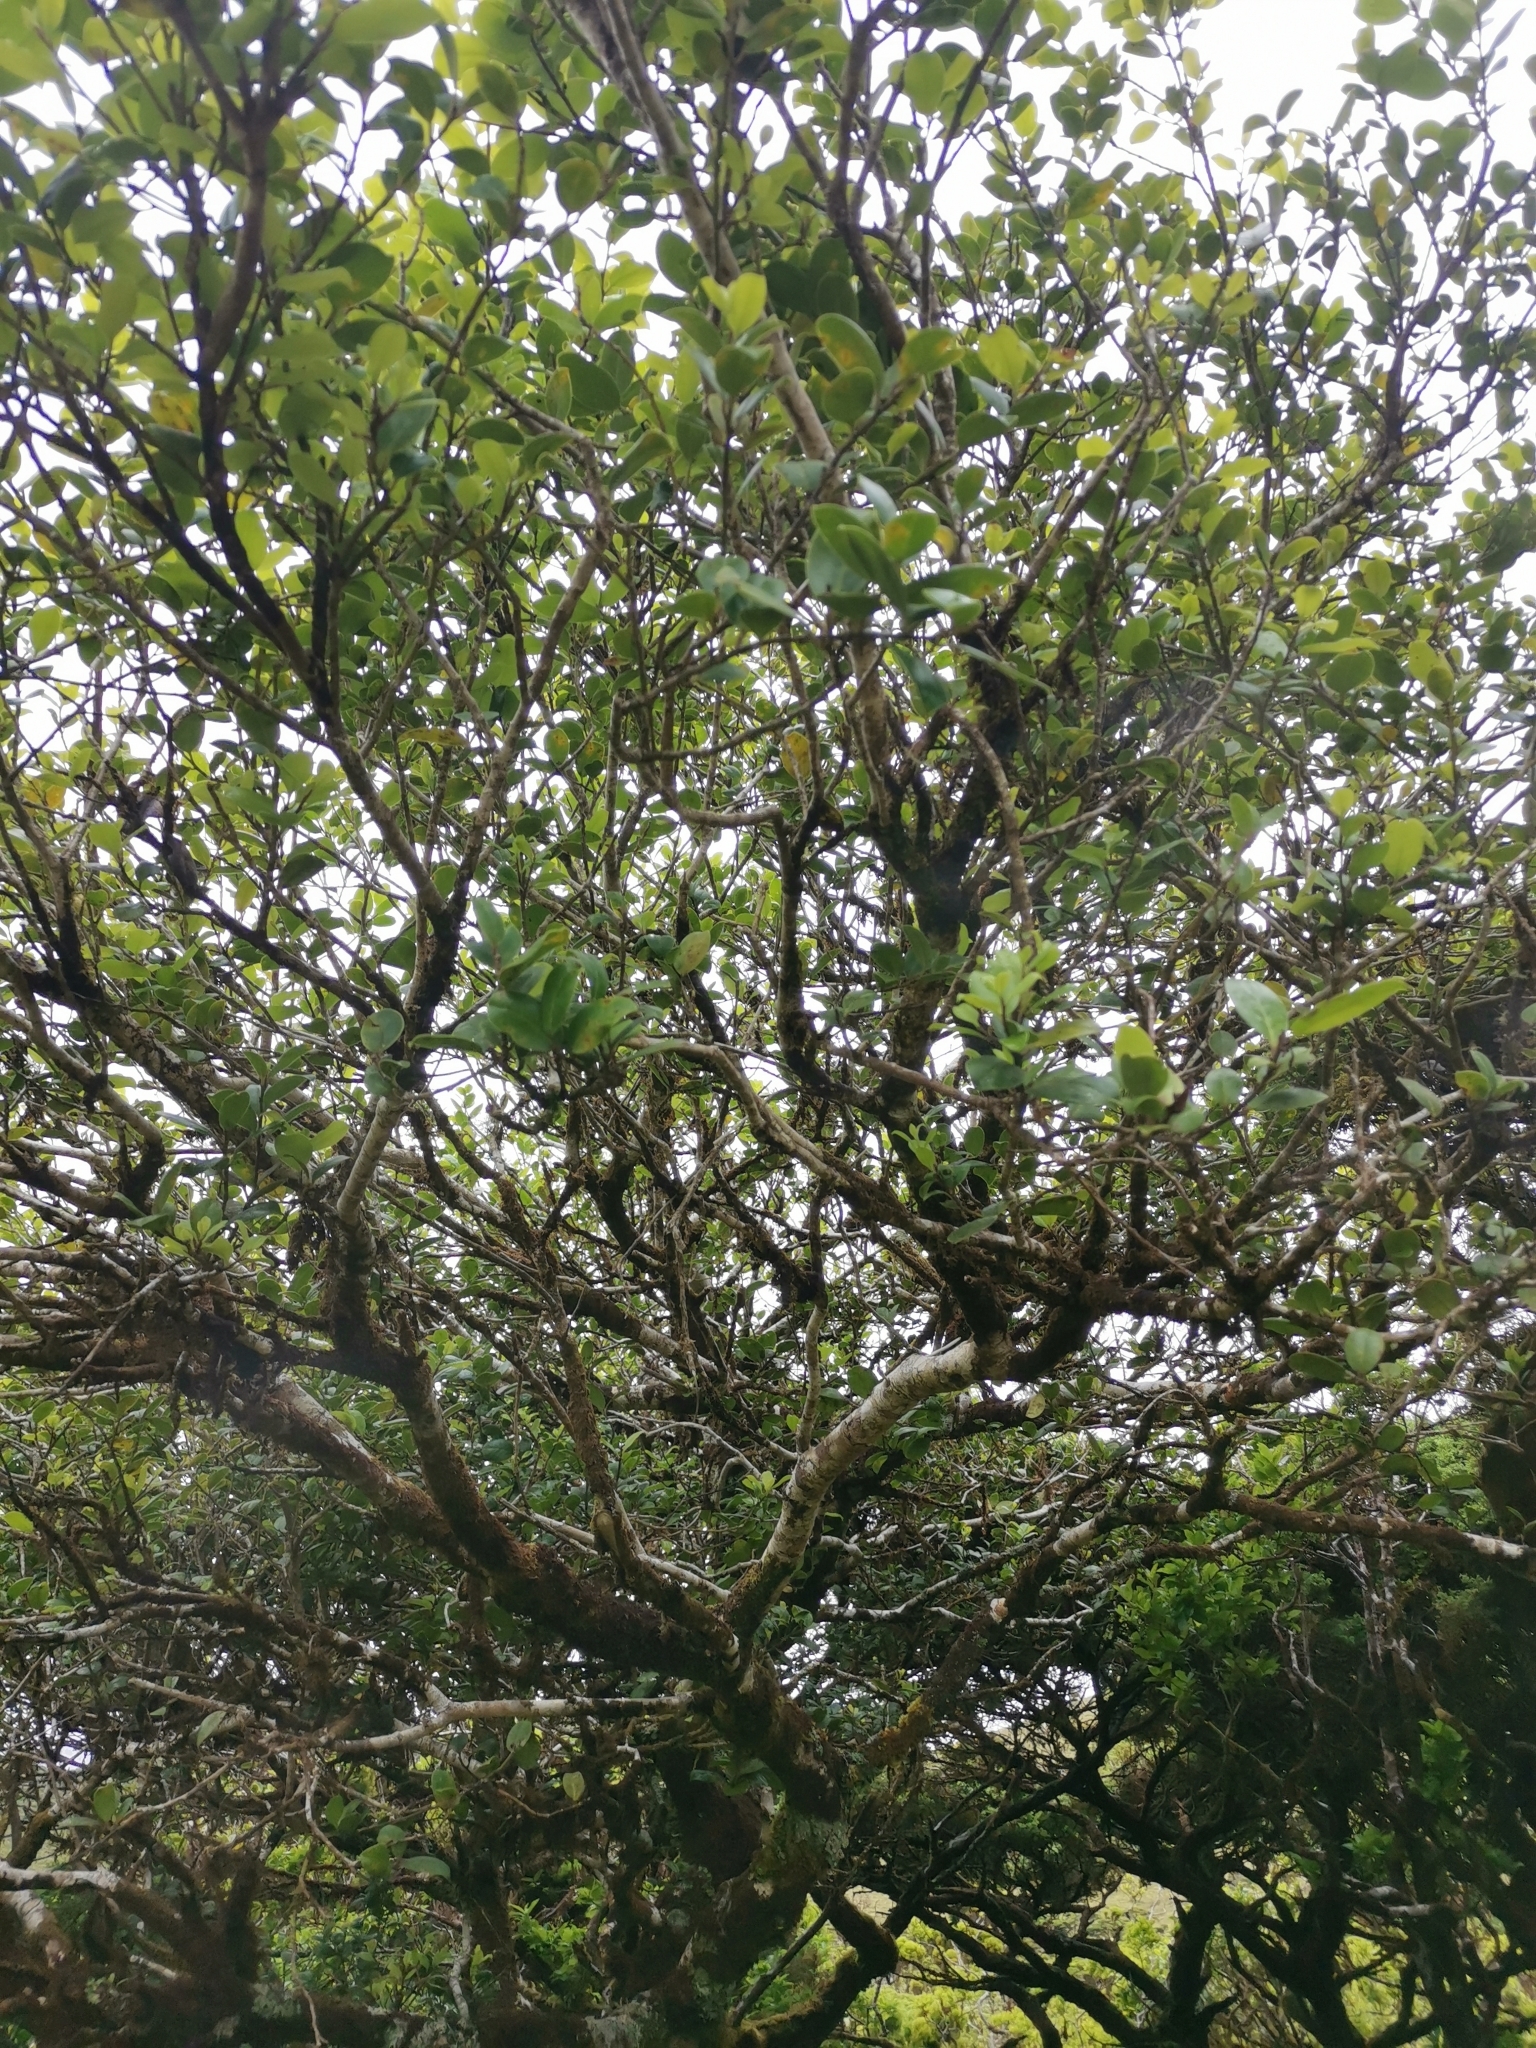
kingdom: Plantae
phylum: Tracheophyta
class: Magnoliopsida
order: Aquifoliales
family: Aquifoliaceae
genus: Ilex
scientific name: Ilex perado
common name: Madeira holly
